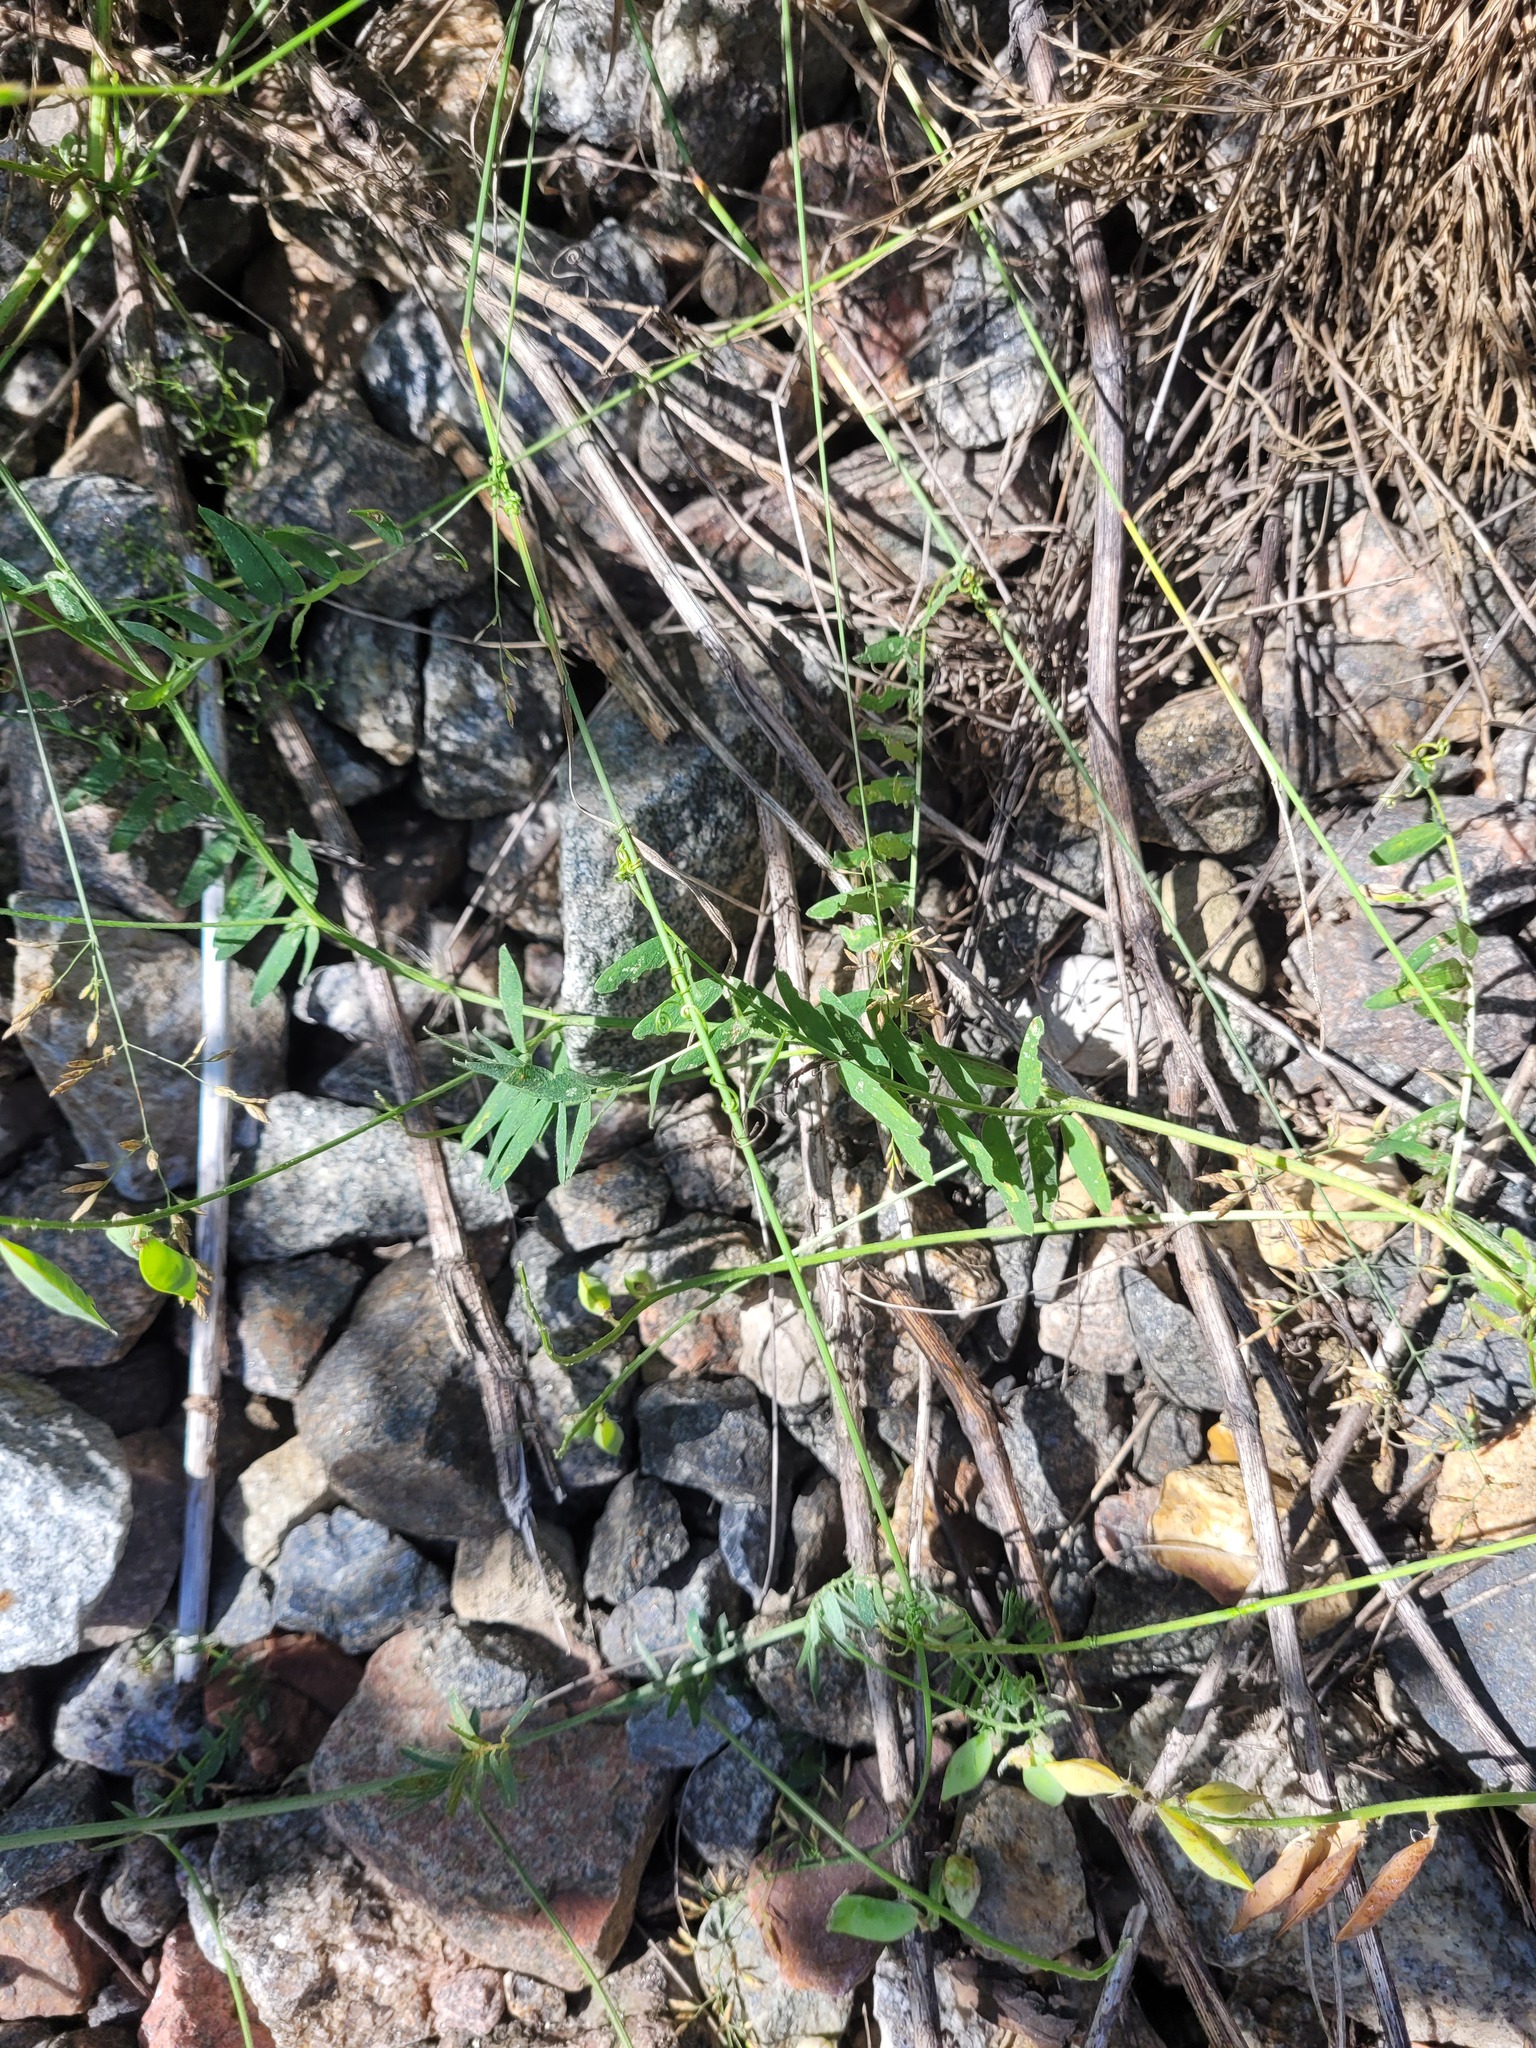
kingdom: Plantae
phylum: Tracheophyta
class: Magnoliopsida
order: Fabales
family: Fabaceae
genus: Vicia
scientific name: Vicia cracca
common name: Bird vetch
